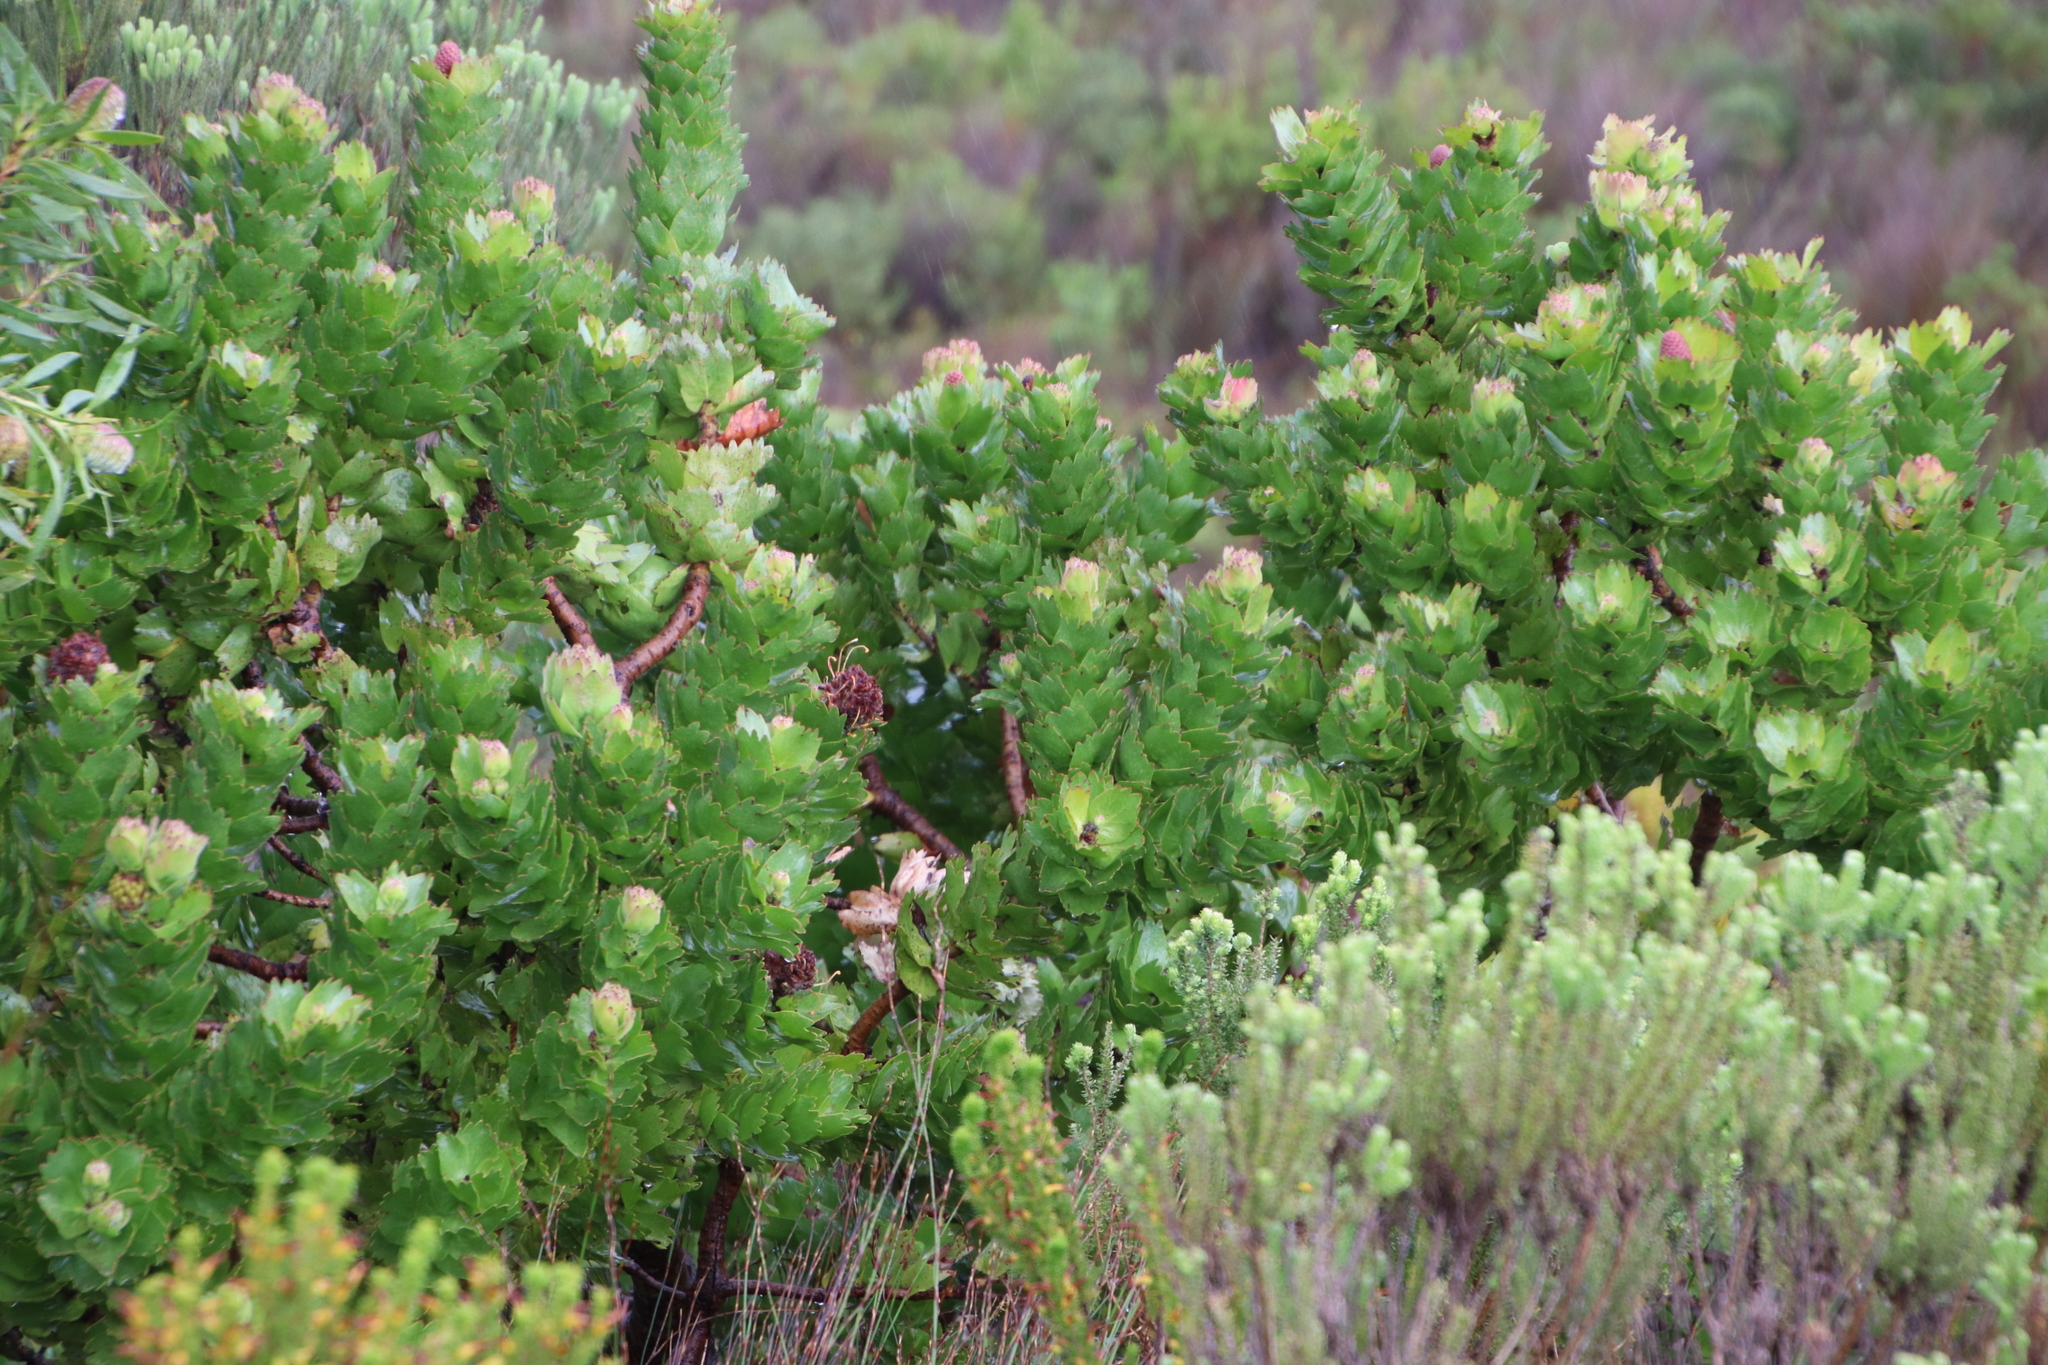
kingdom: Plantae
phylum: Tracheophyta
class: Magnoliopsida
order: Proteales
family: Proteaceae
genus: Leucospermum
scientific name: Leucospermum patersonii
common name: False tree pincushion
